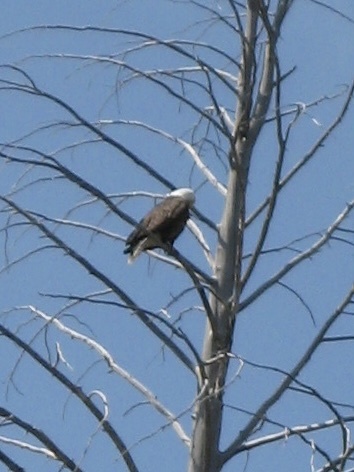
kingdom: Animalia
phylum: Chordata
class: Aves
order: Accipitriformes
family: Accipitridae
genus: Haliaeetus
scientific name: Haliaeetus leucocephalus
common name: Bald eagle
